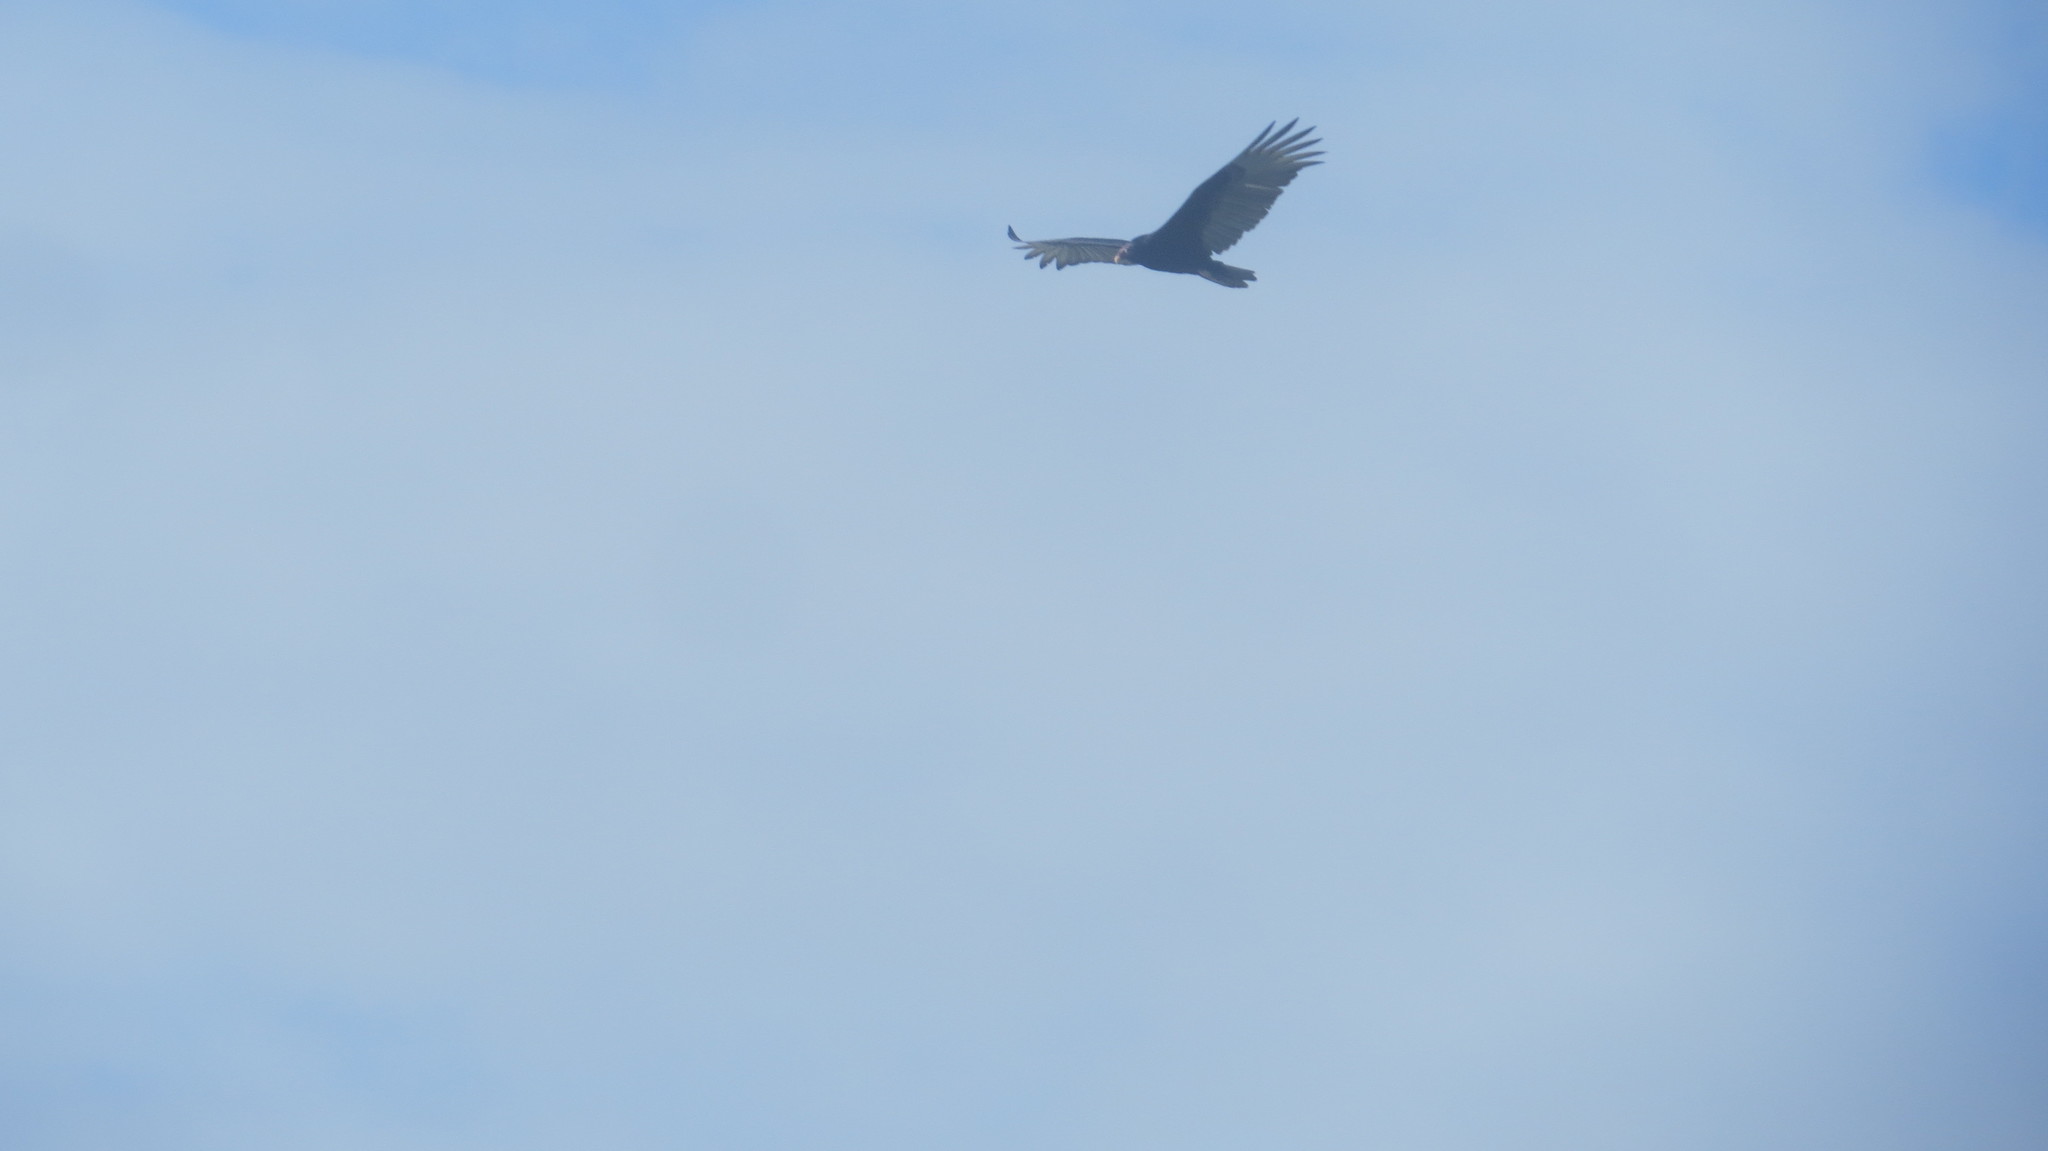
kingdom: Animalia
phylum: Chordata
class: Aves
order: Accipitriformes
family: Cathartidae
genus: Cathartes
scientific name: Cathartes aura
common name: Turkey vulture
